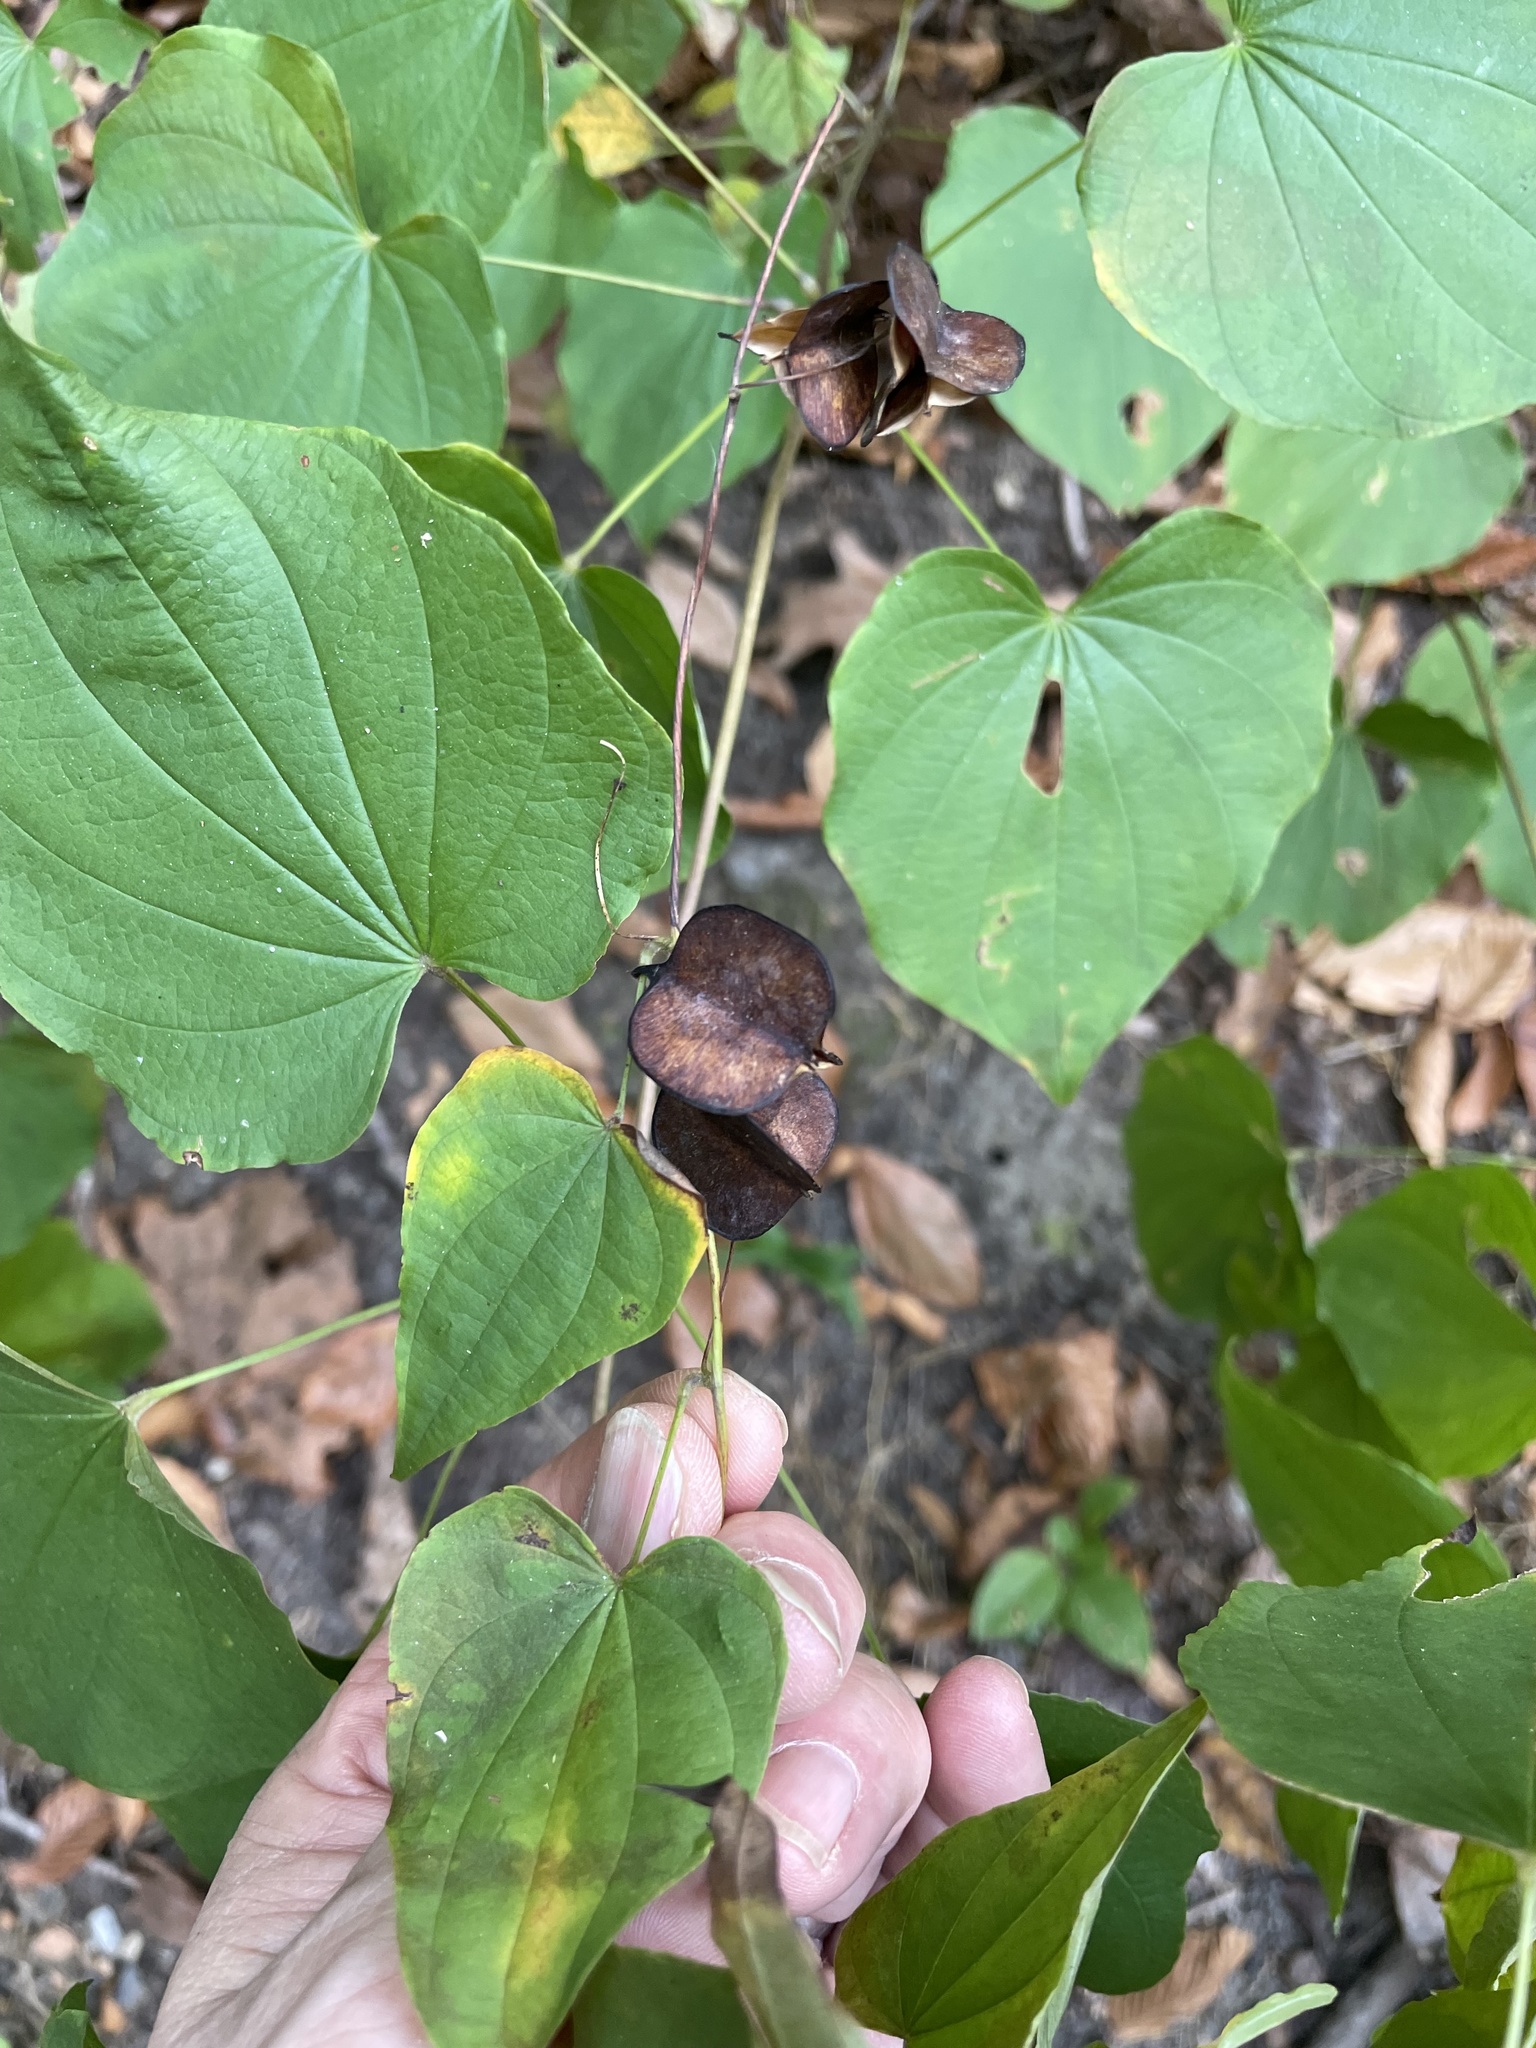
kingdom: Plantae
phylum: Tracheophyta
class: Liliopsida
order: Dioscoreales
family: Dioscoreaceae
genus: Dioscorea
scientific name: Dioscorea villosa
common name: Wild yam
